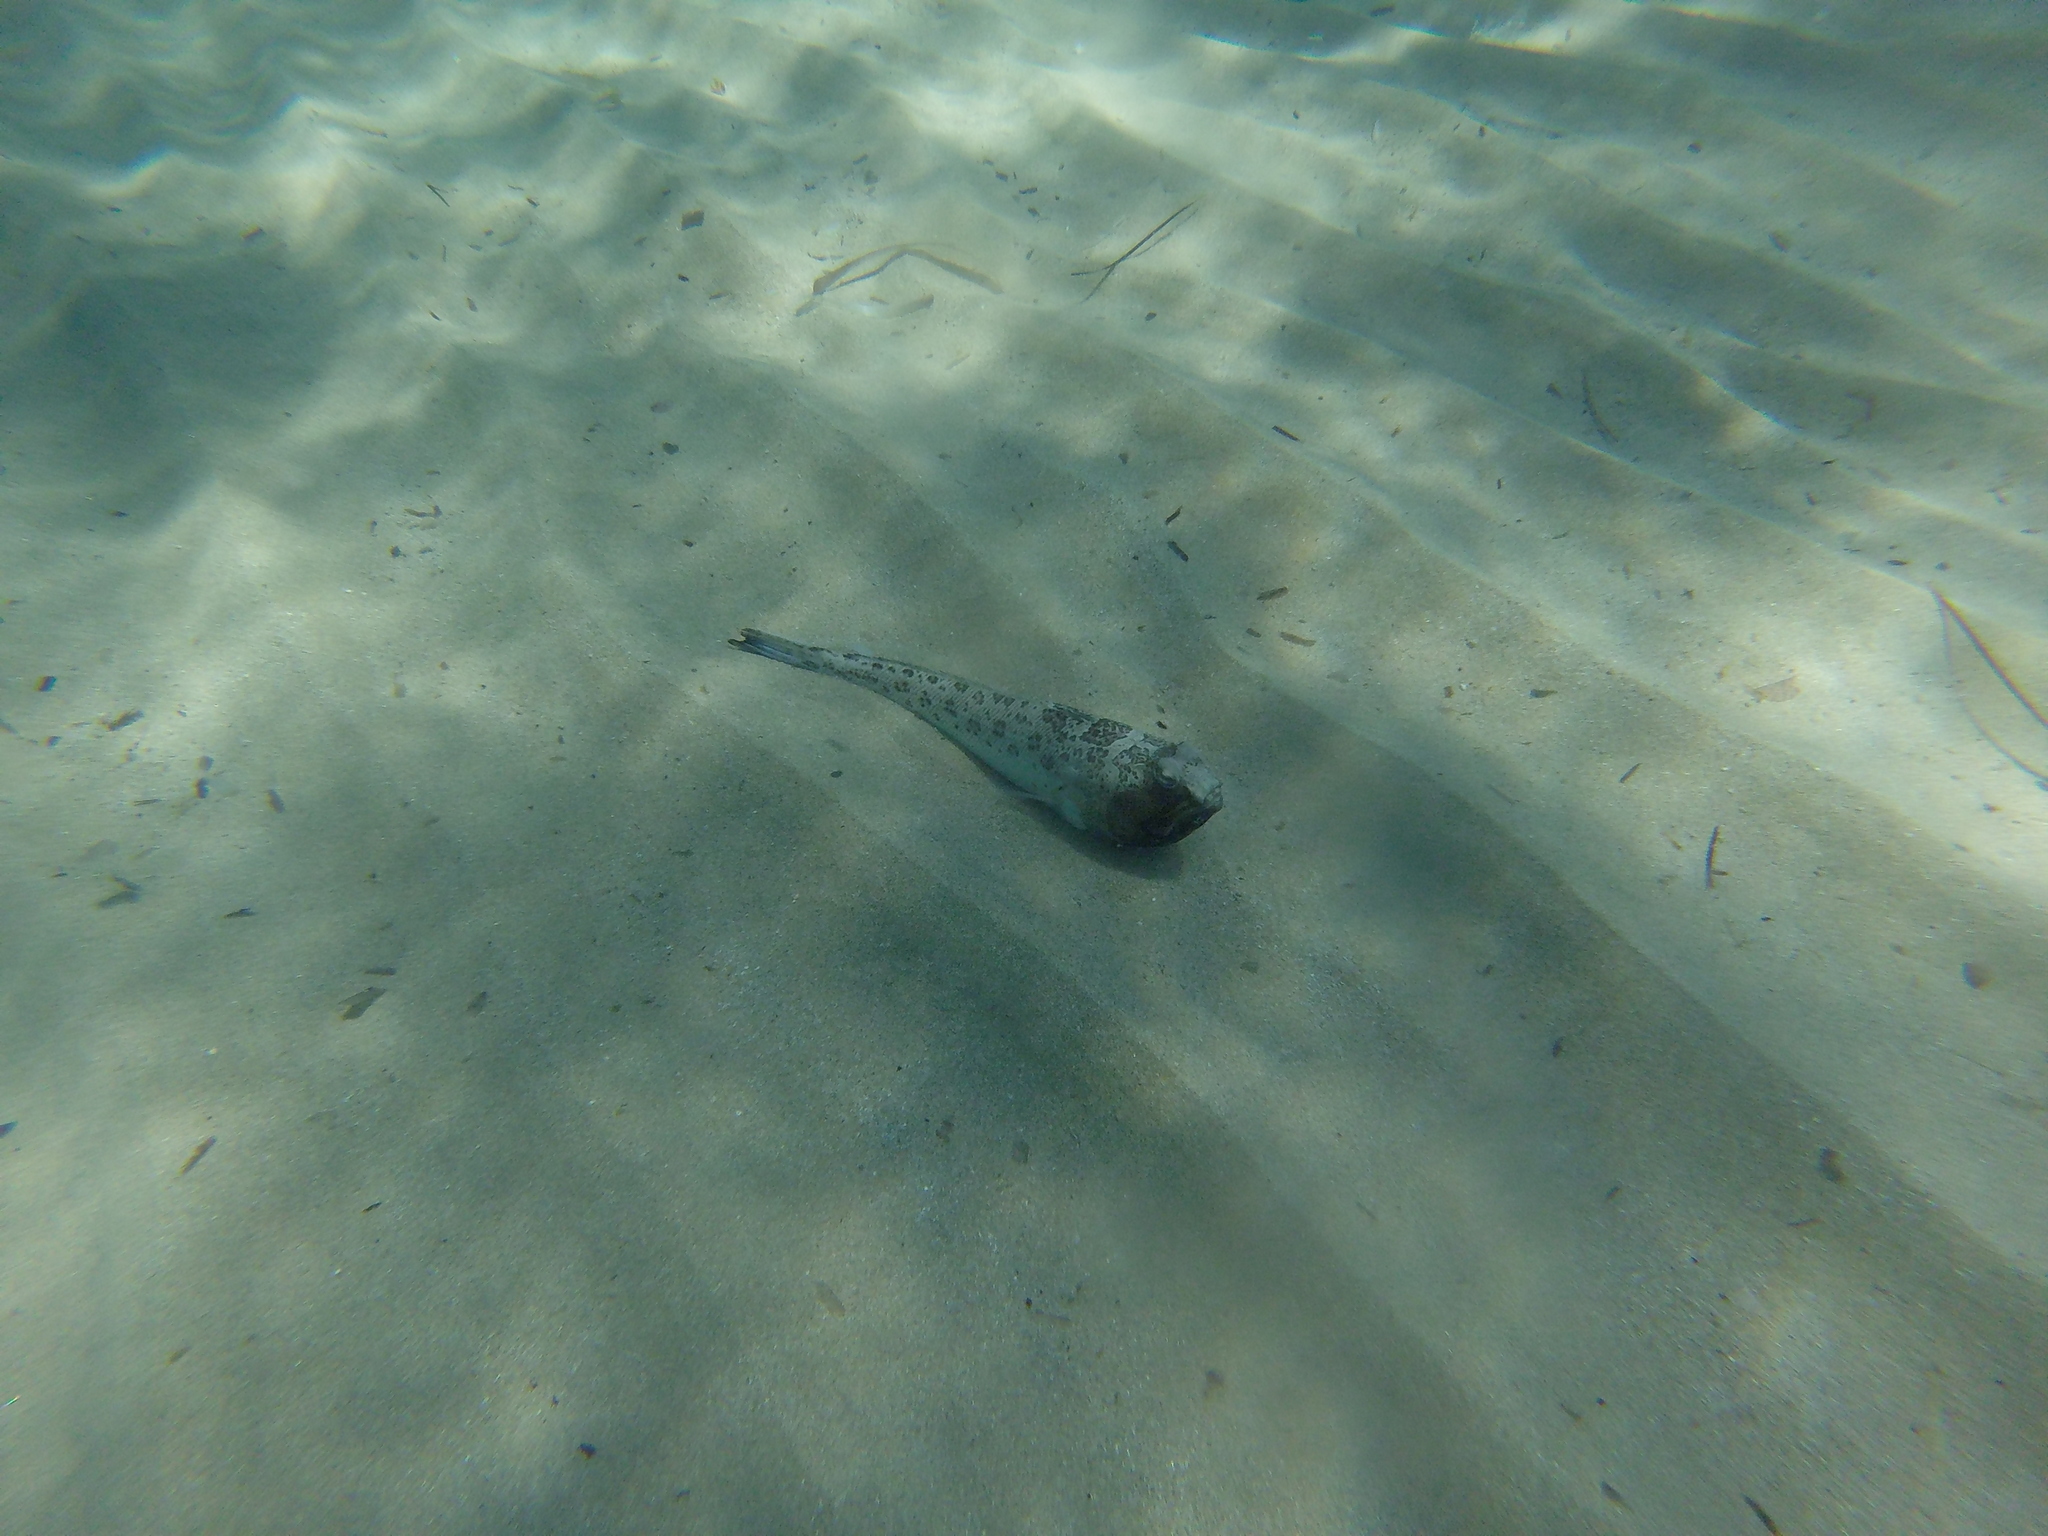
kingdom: Animalia
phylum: Chordata
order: Perciformes
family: Trachinidae
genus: Trachinus
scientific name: Trachinus radiatus
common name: Starry weever
